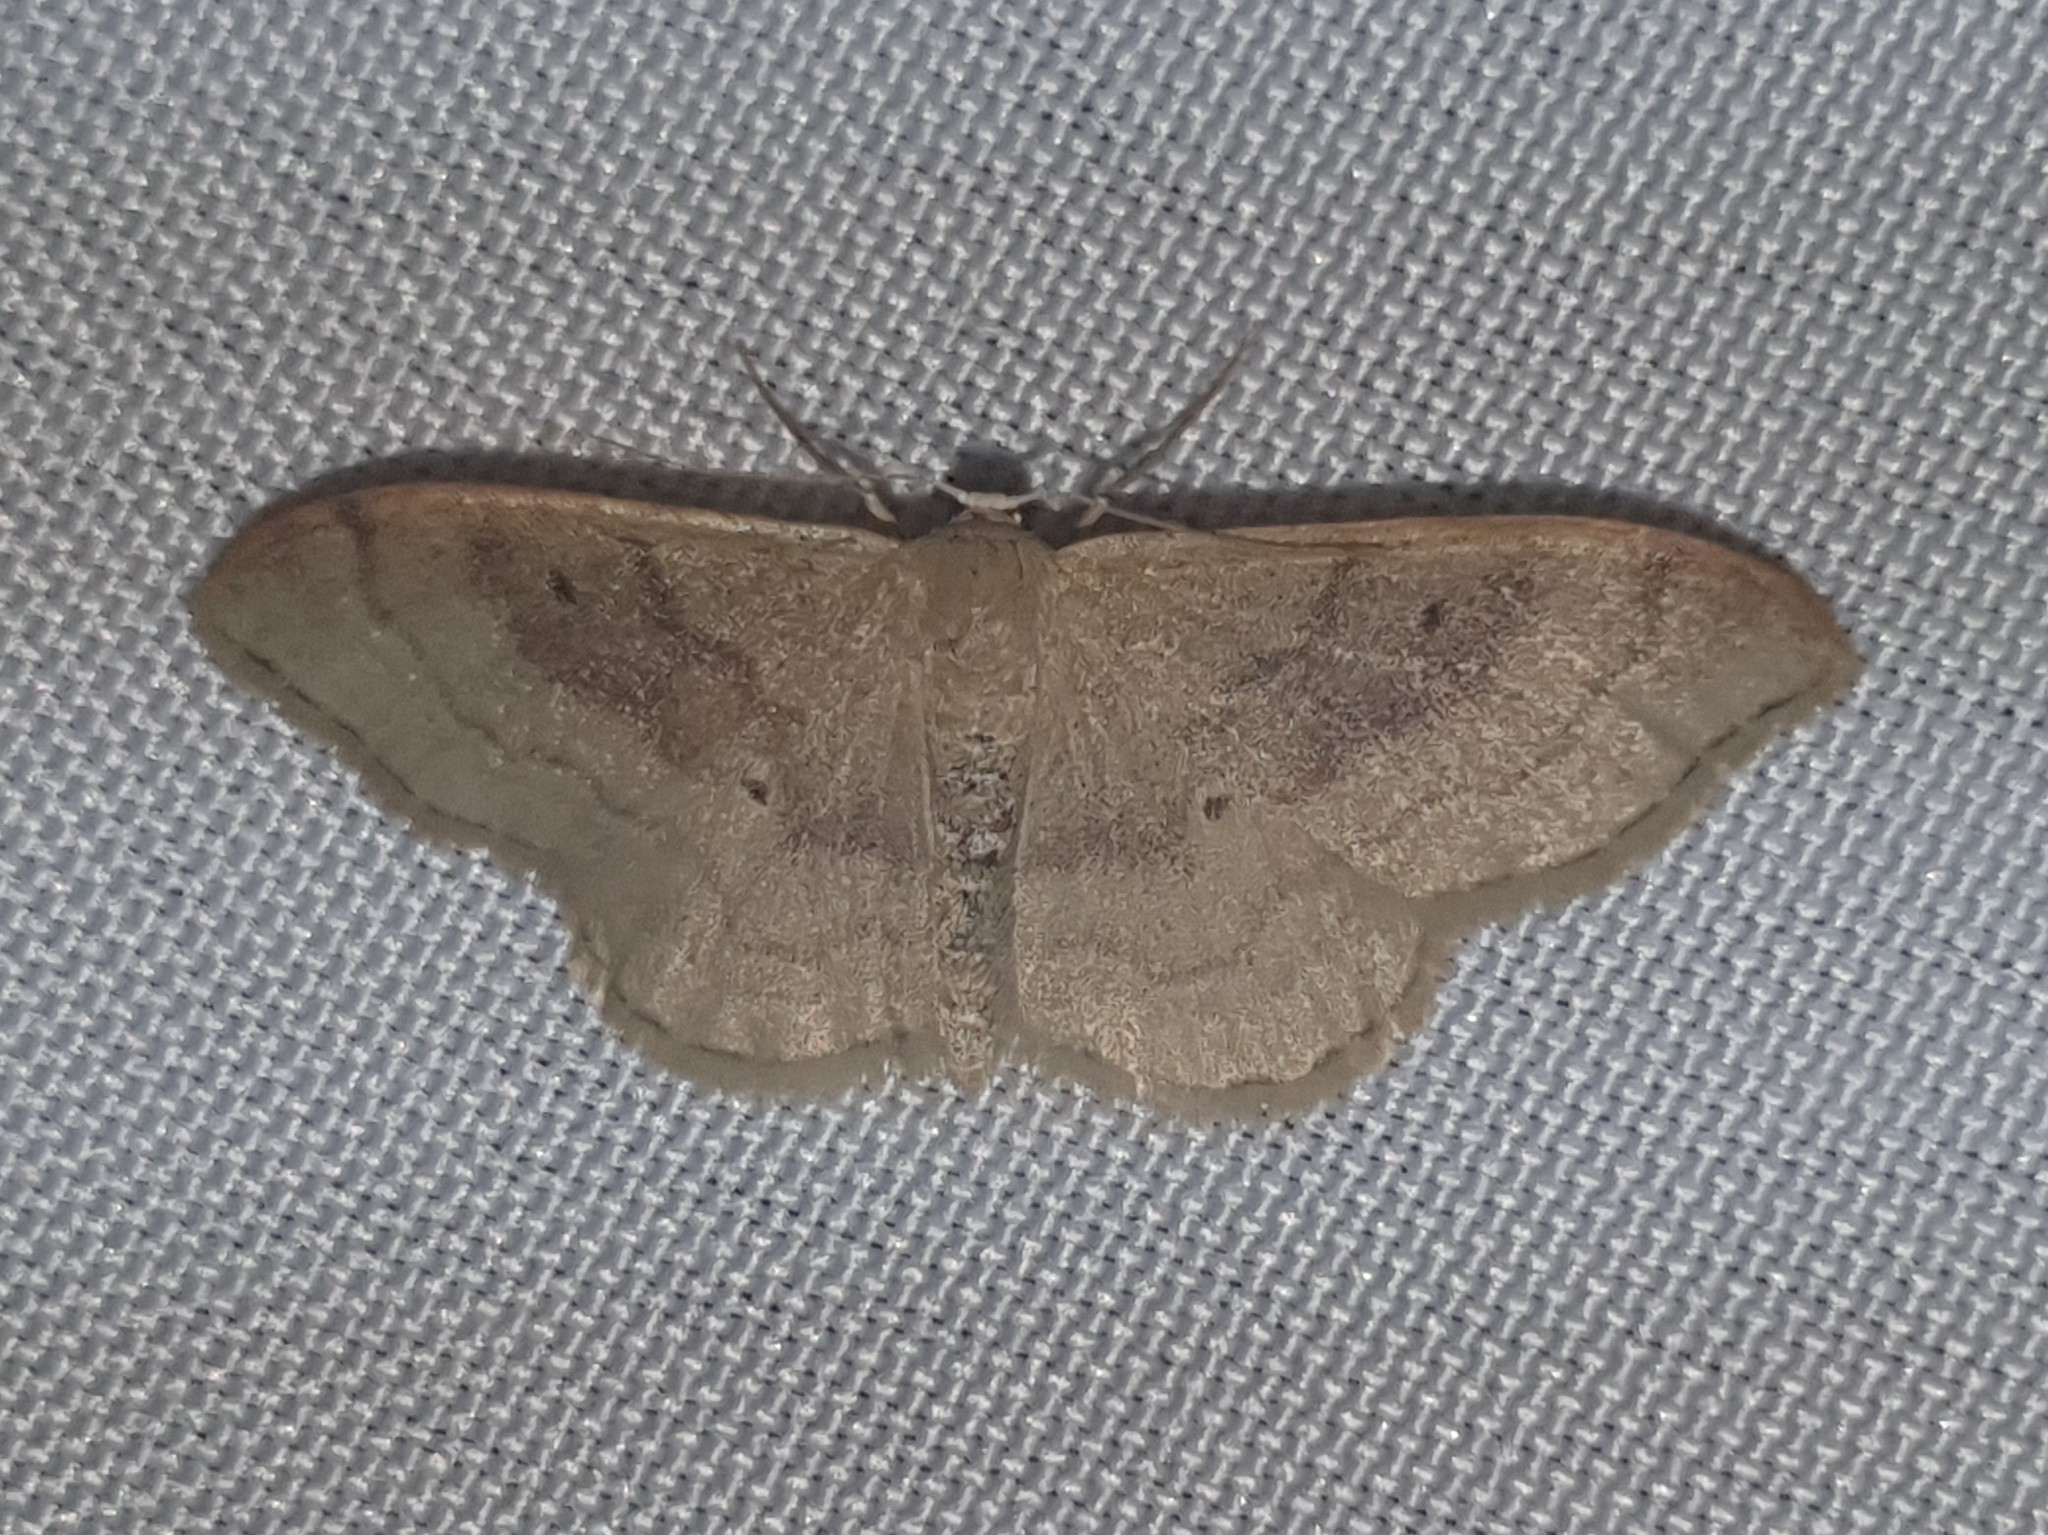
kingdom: Animalia
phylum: Arthropoda
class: Insecta
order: Lepidoptera
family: Geometridae
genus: Idaea
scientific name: Idaea degeneraria
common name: Portland ribbon wave
